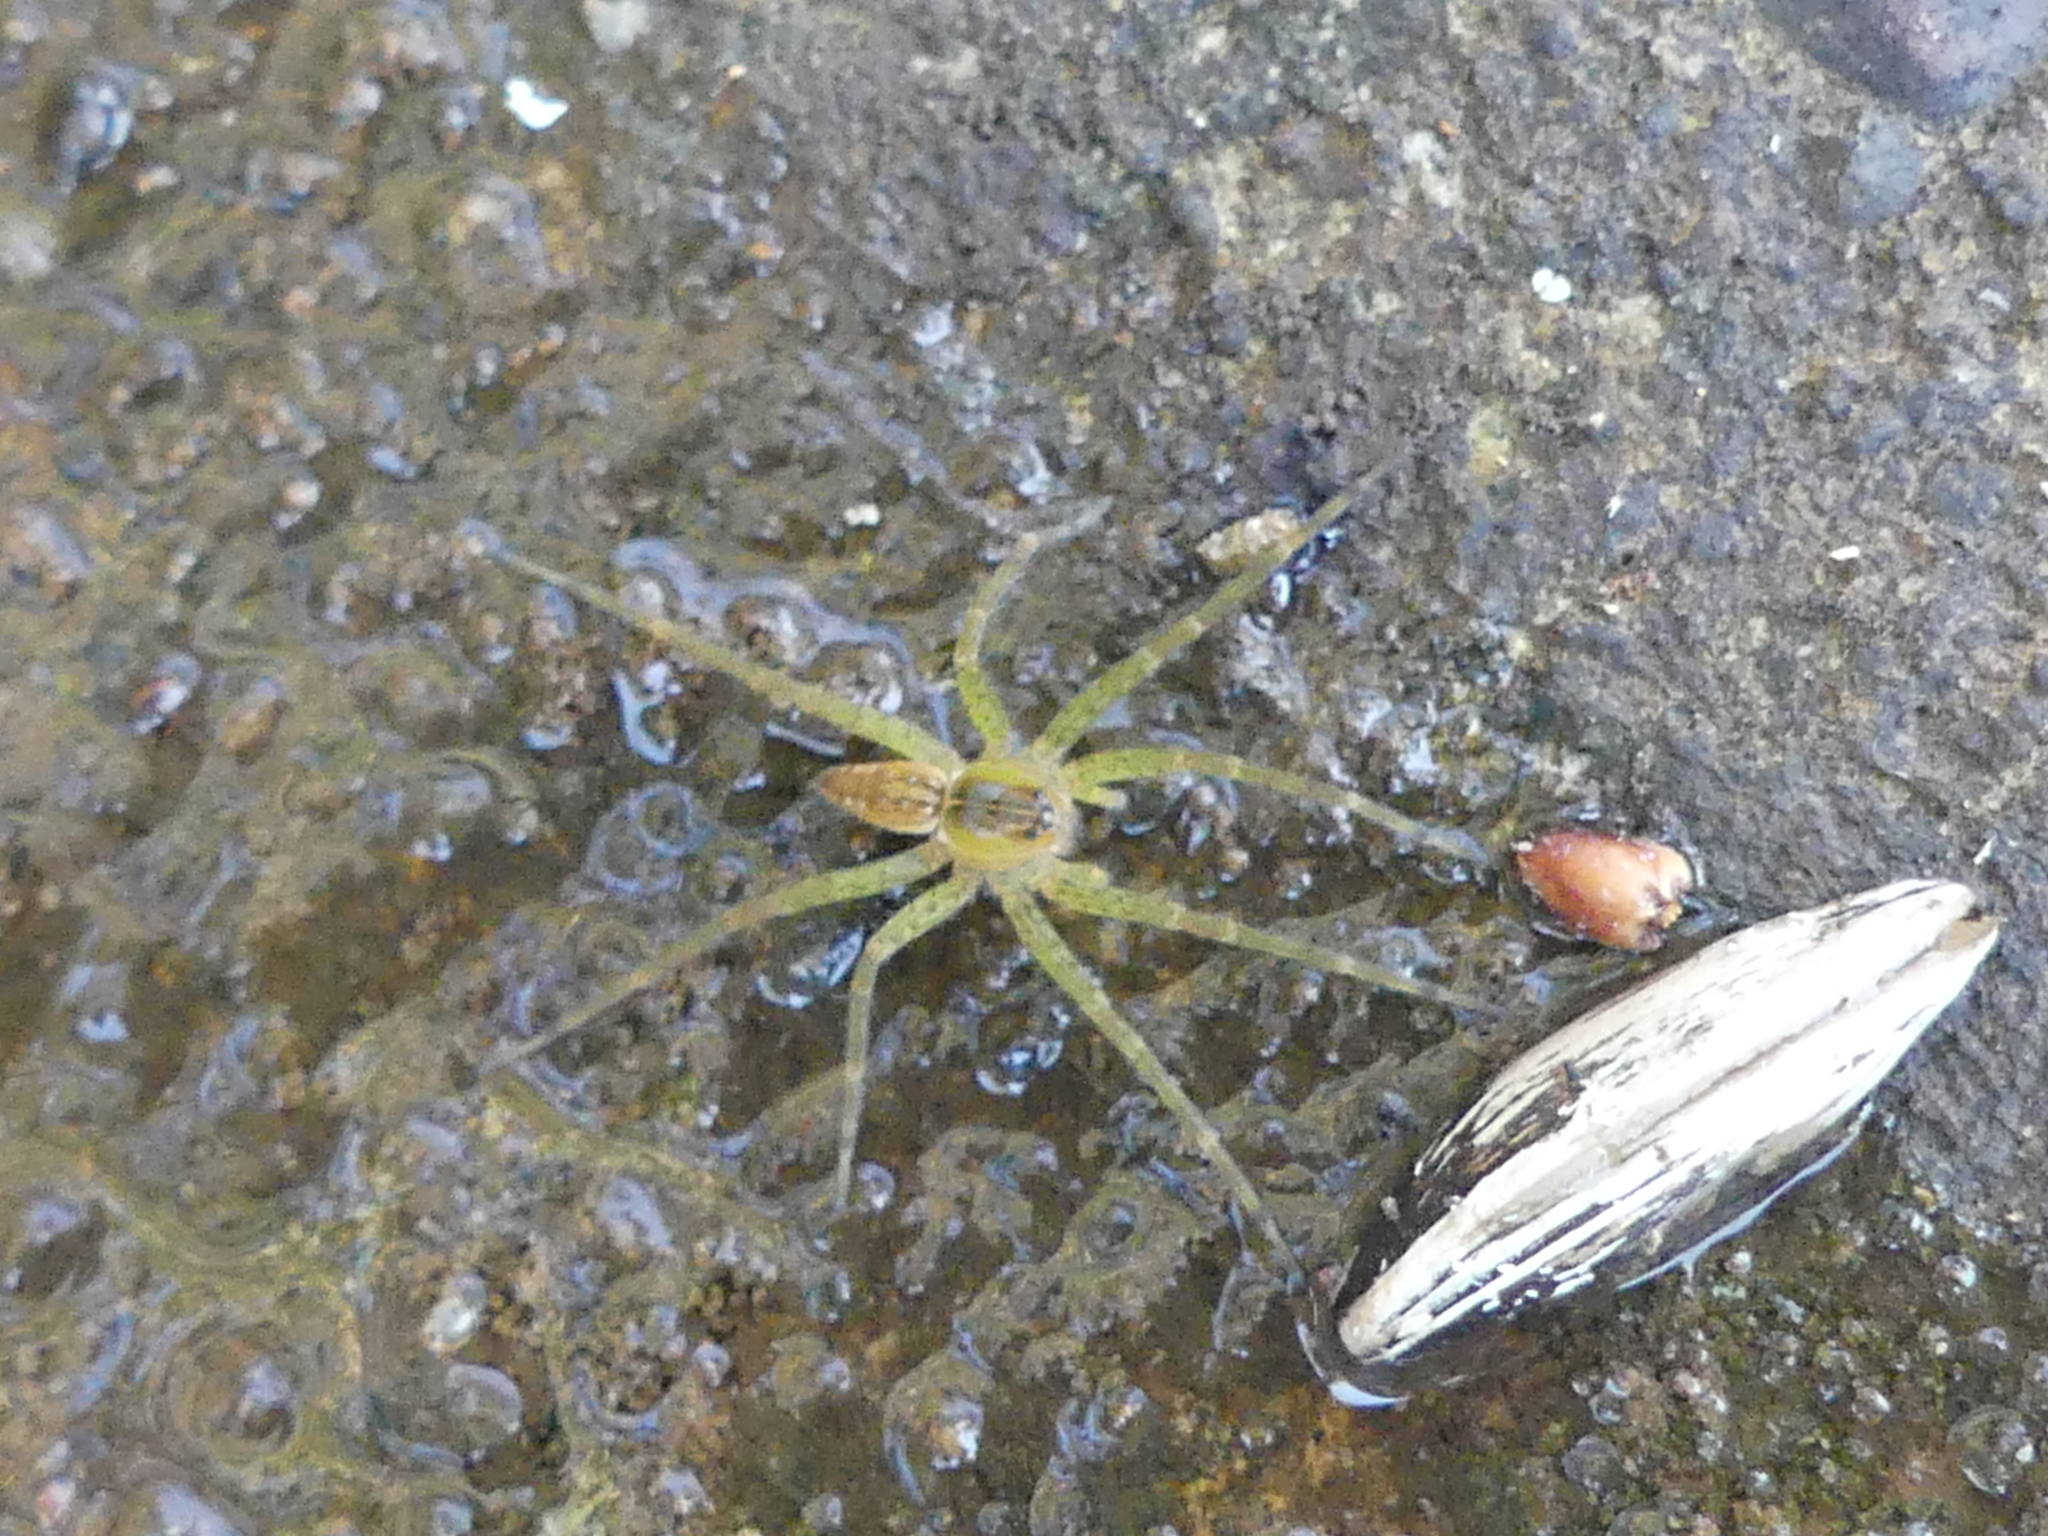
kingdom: Animalia
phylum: Arthropoda
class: Arachnida
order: Araneae
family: Pisauridae
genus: Dolomedes
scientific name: Dolomedes triton
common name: Six-spotted fishing spider
